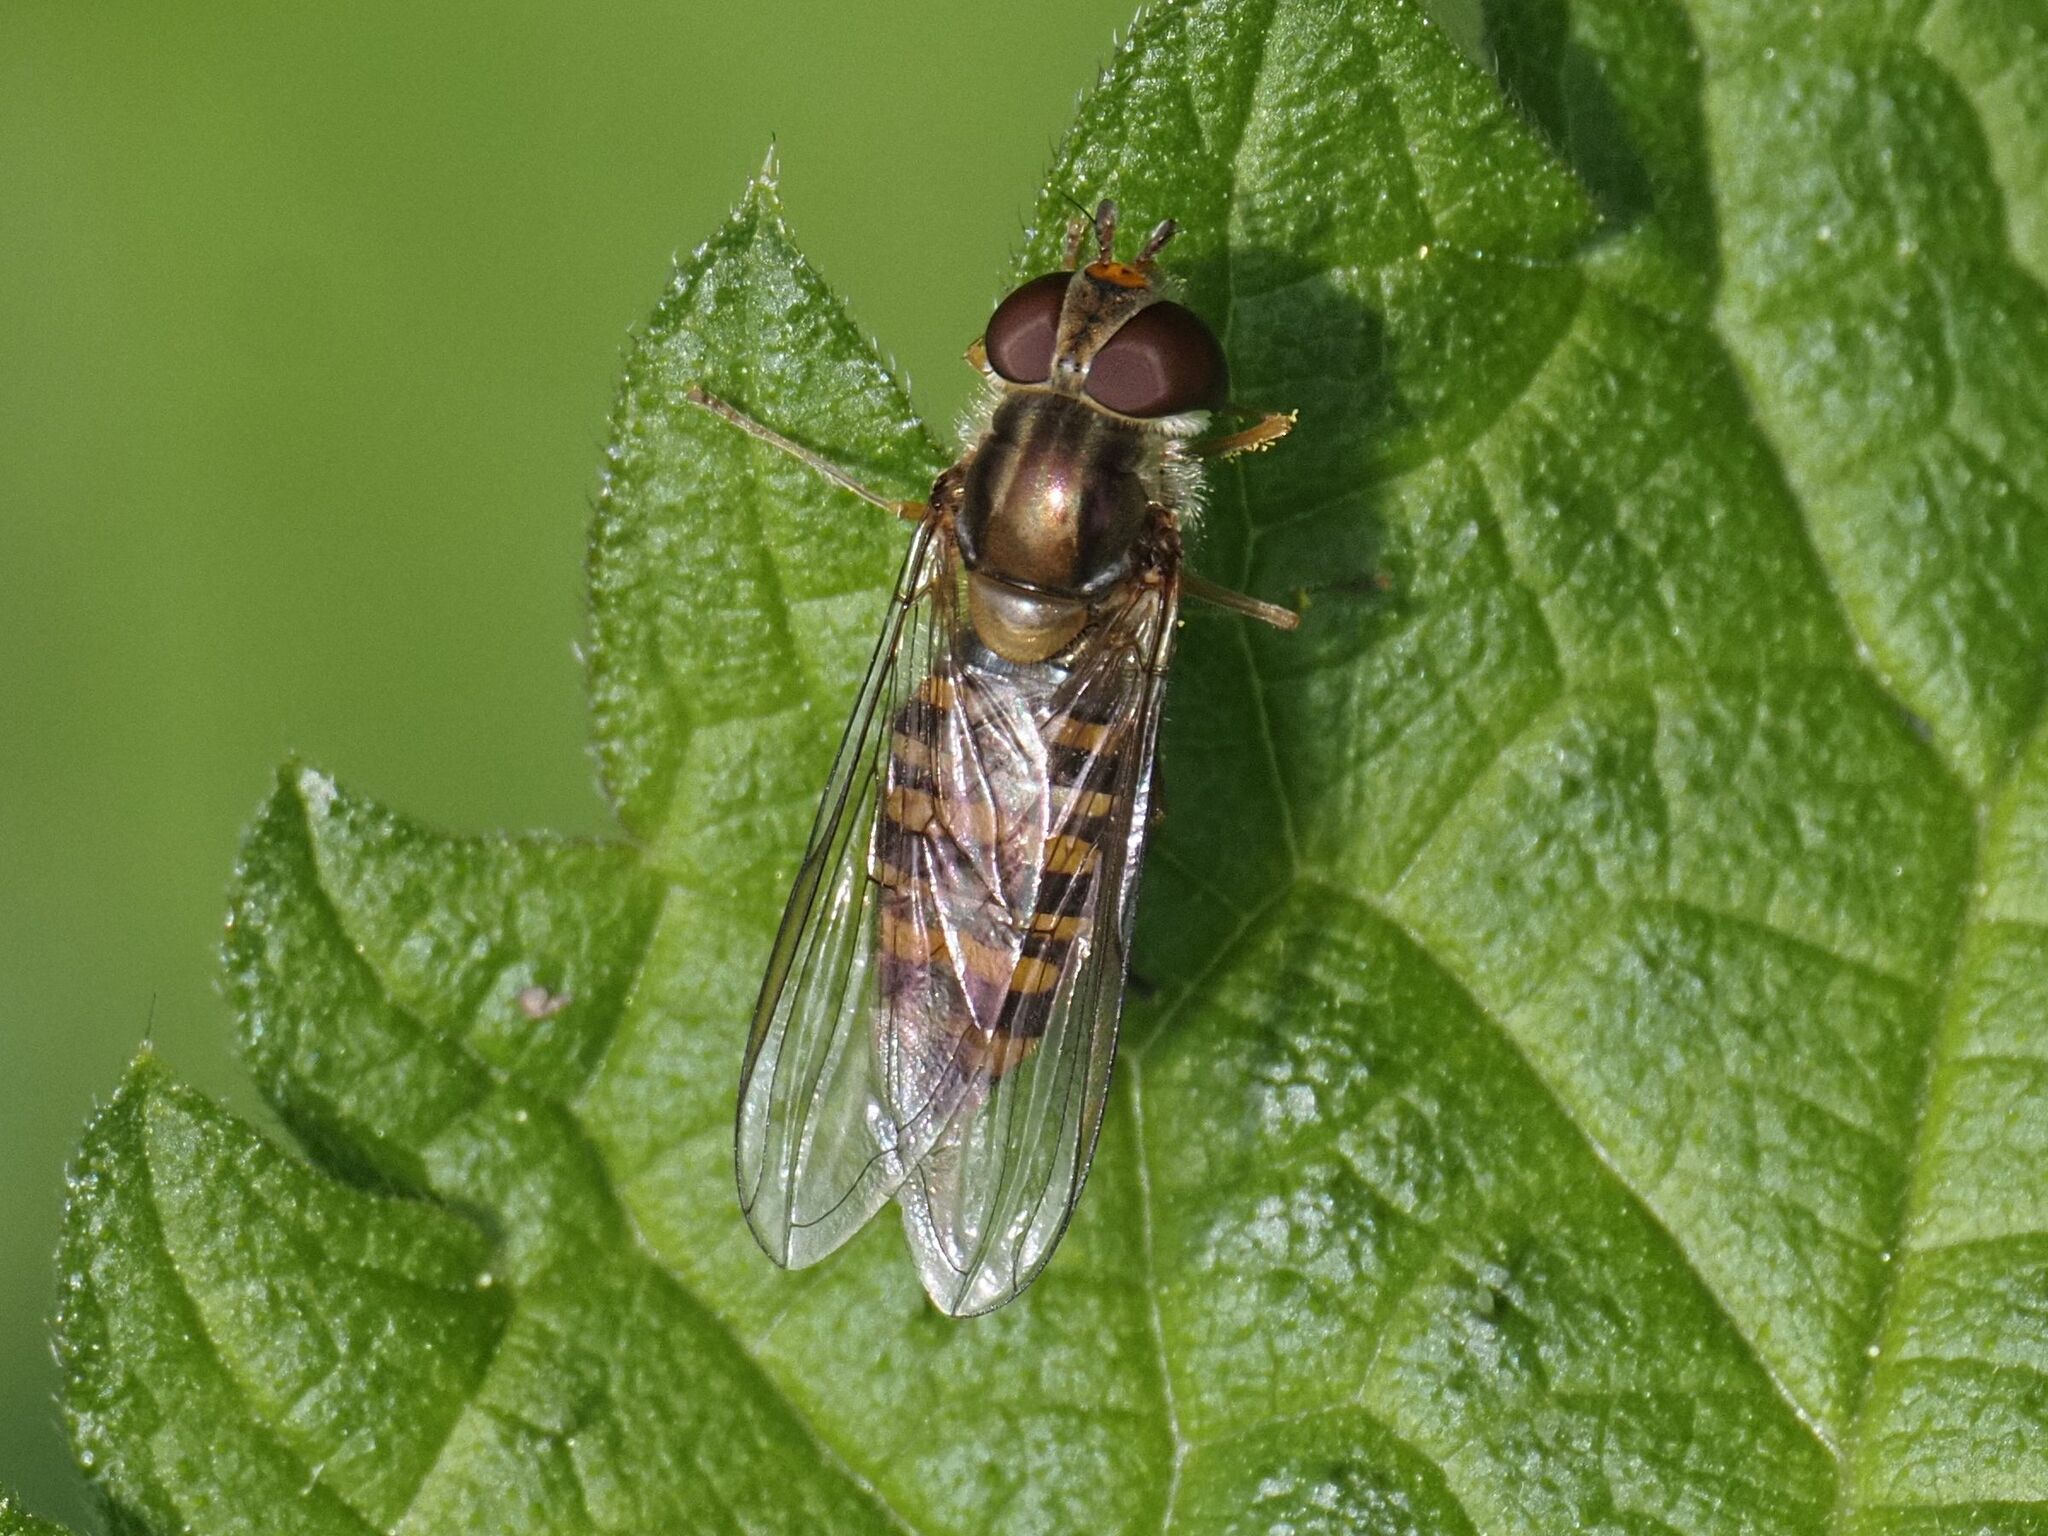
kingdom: Animalia
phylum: Arthropoda
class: Insecta
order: Diptera
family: Syrphidae
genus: Episyrphus
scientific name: Episyrphus balteatus
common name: Marmalade hoverfly
